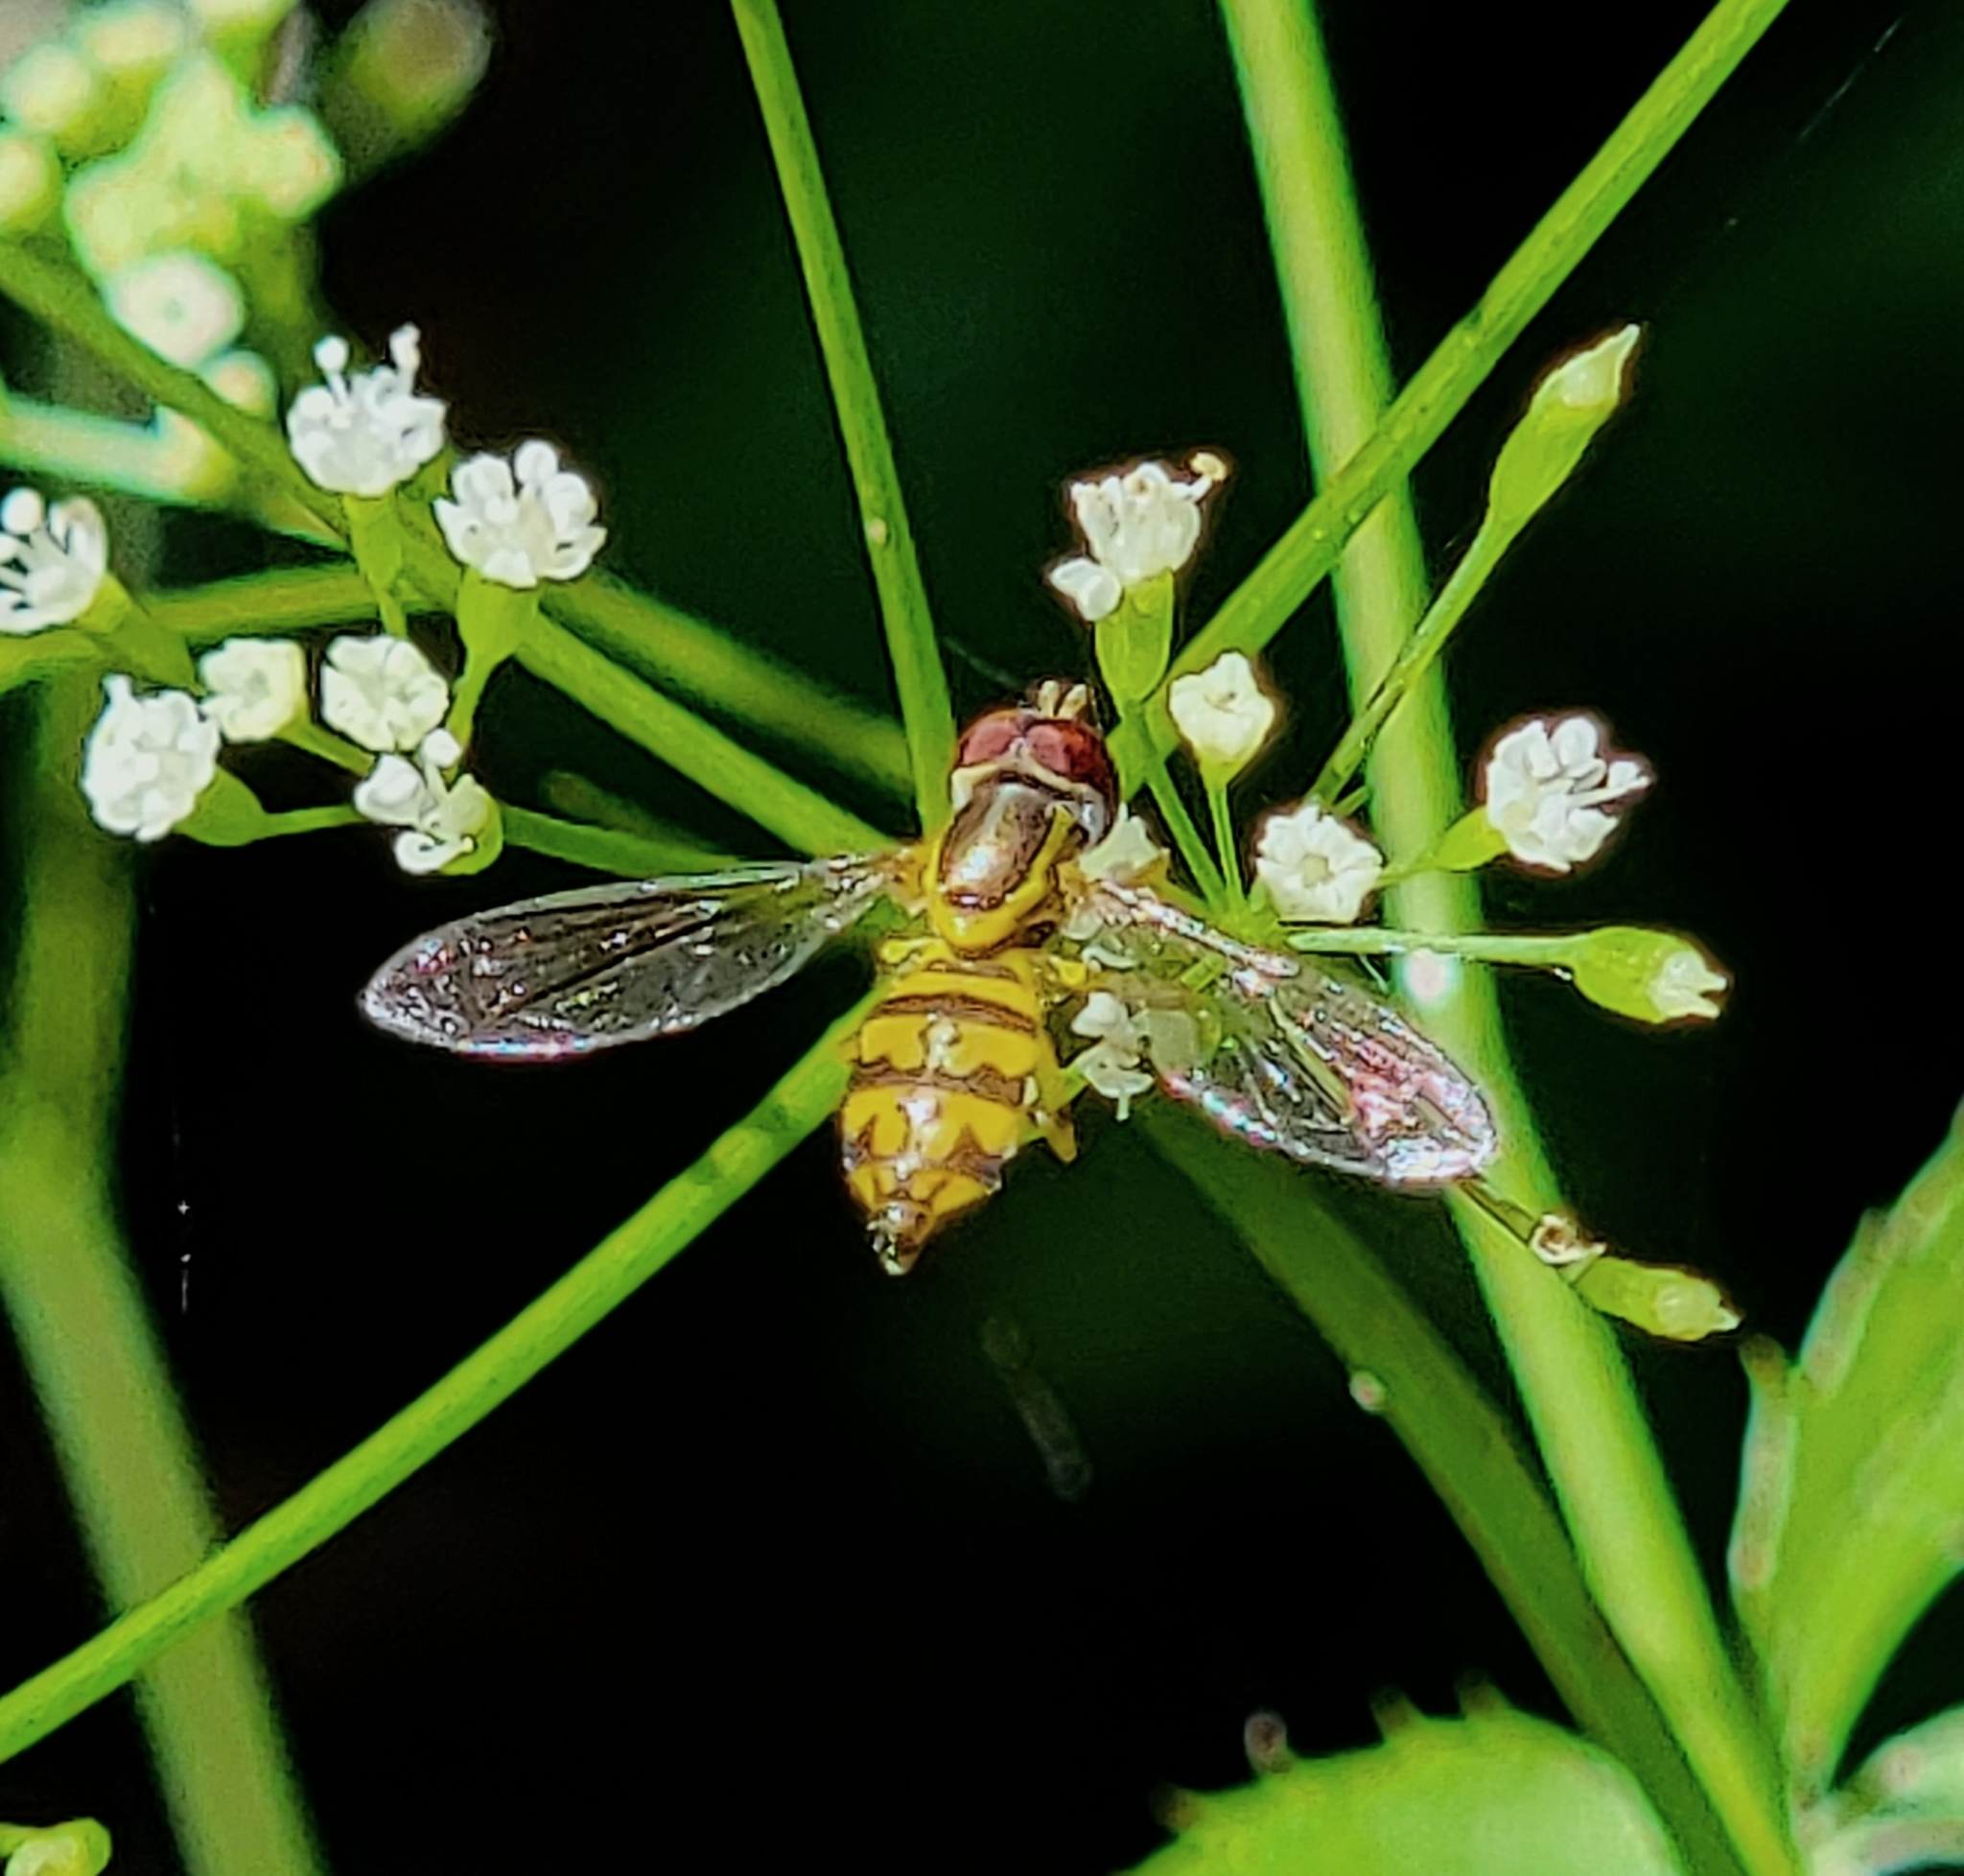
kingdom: Animalia
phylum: Arthropoda
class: Insecta
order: Diptera
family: Syrphidae
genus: Toxomerus
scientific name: Toxomerus geminatus
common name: Eastern calligrapher
